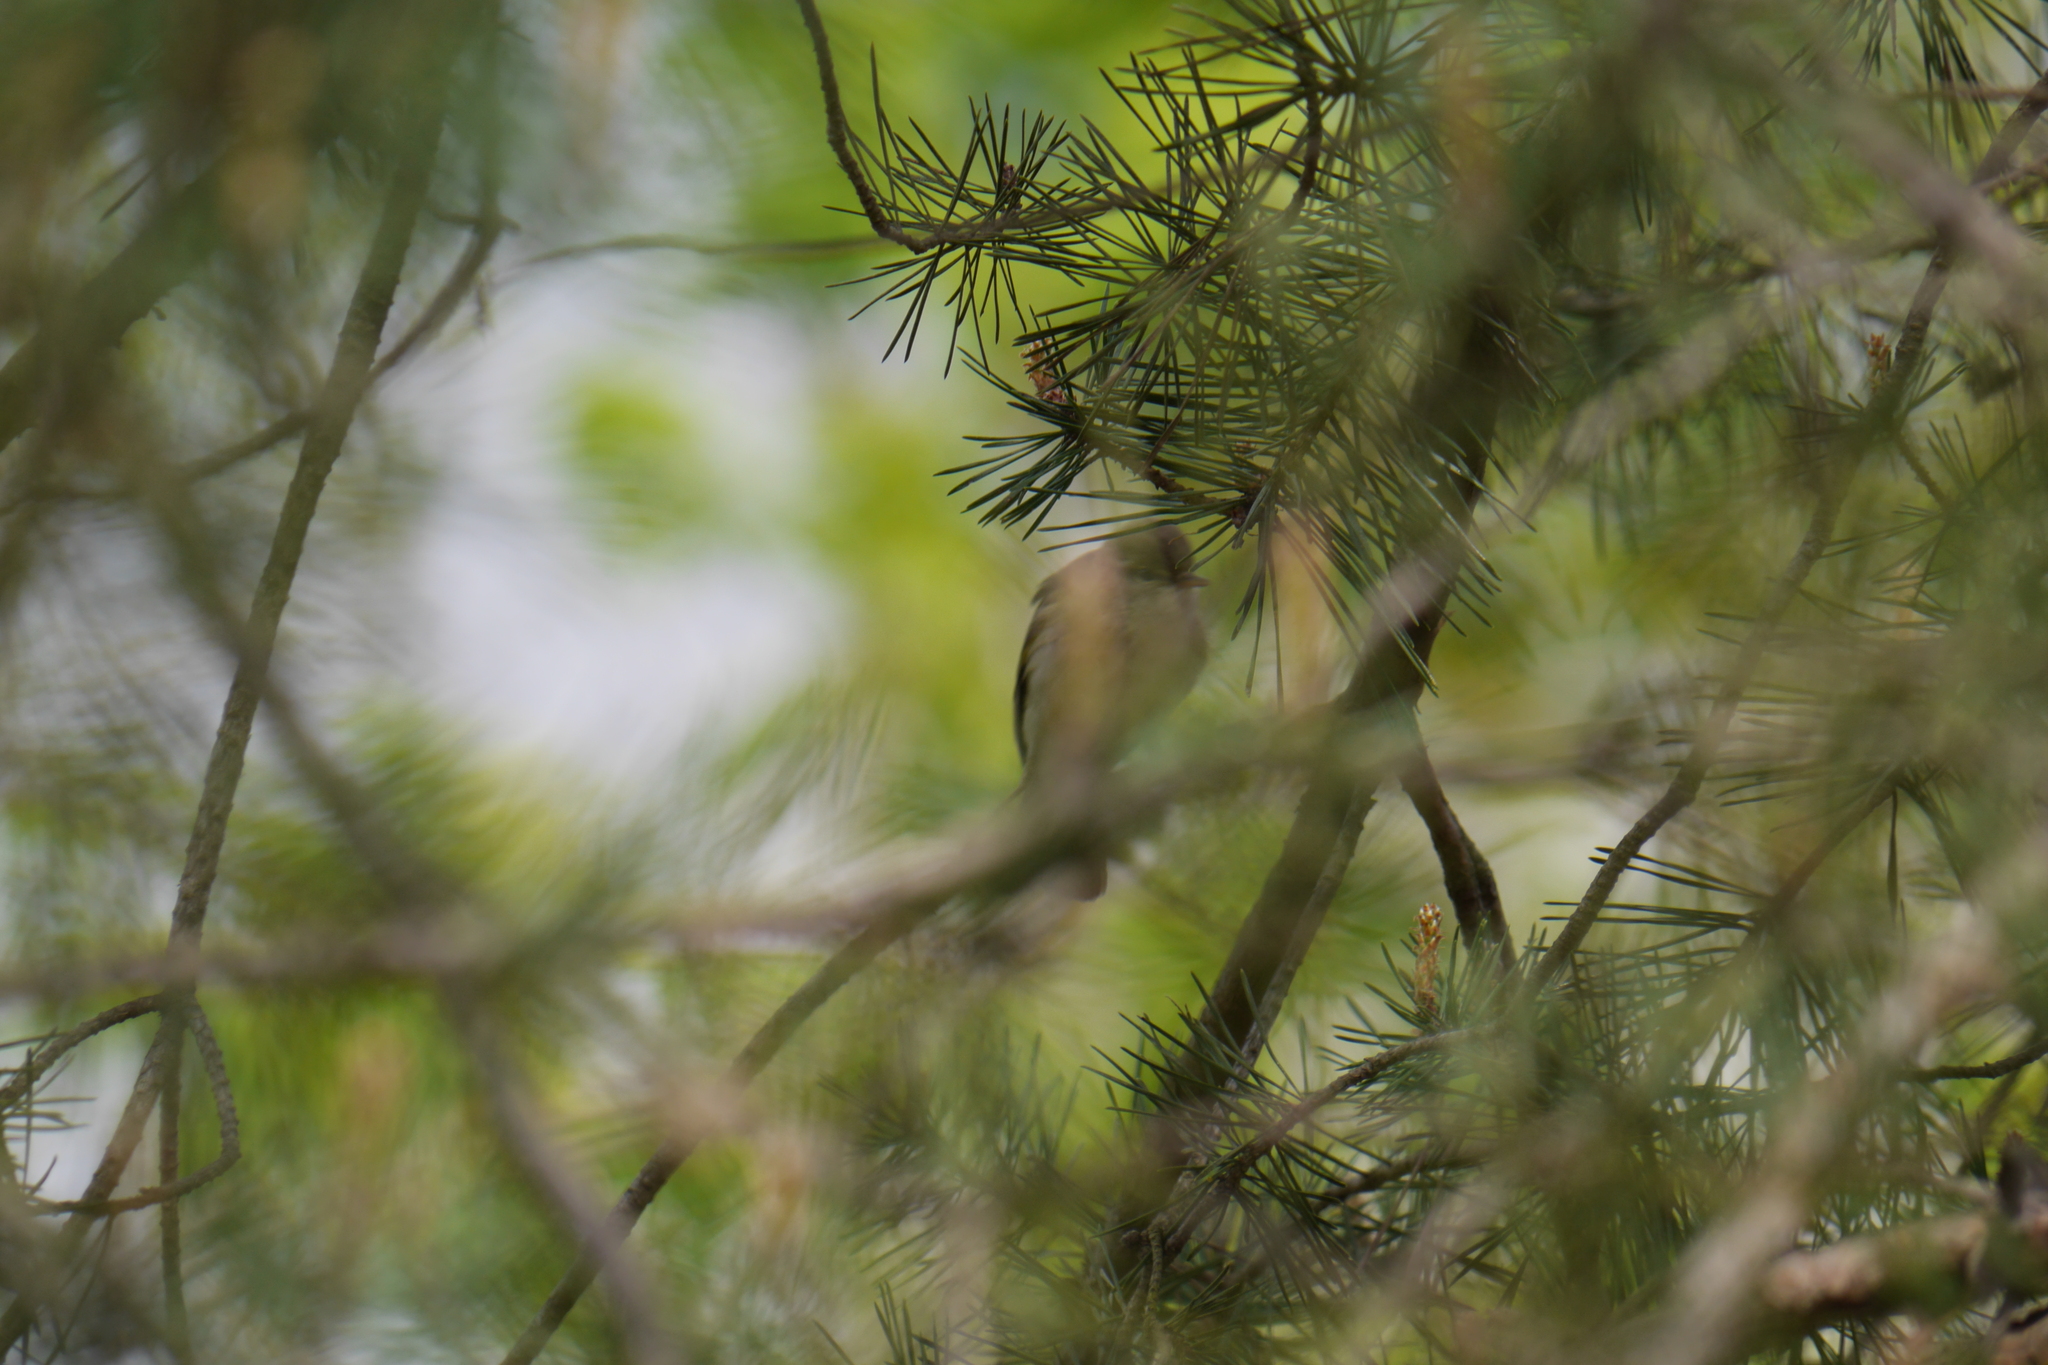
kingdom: Animalia
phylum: Chordata
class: Aves
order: Passeriformes
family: Phylloscopidae
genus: Phylloscopus
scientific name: Phylloscopus
